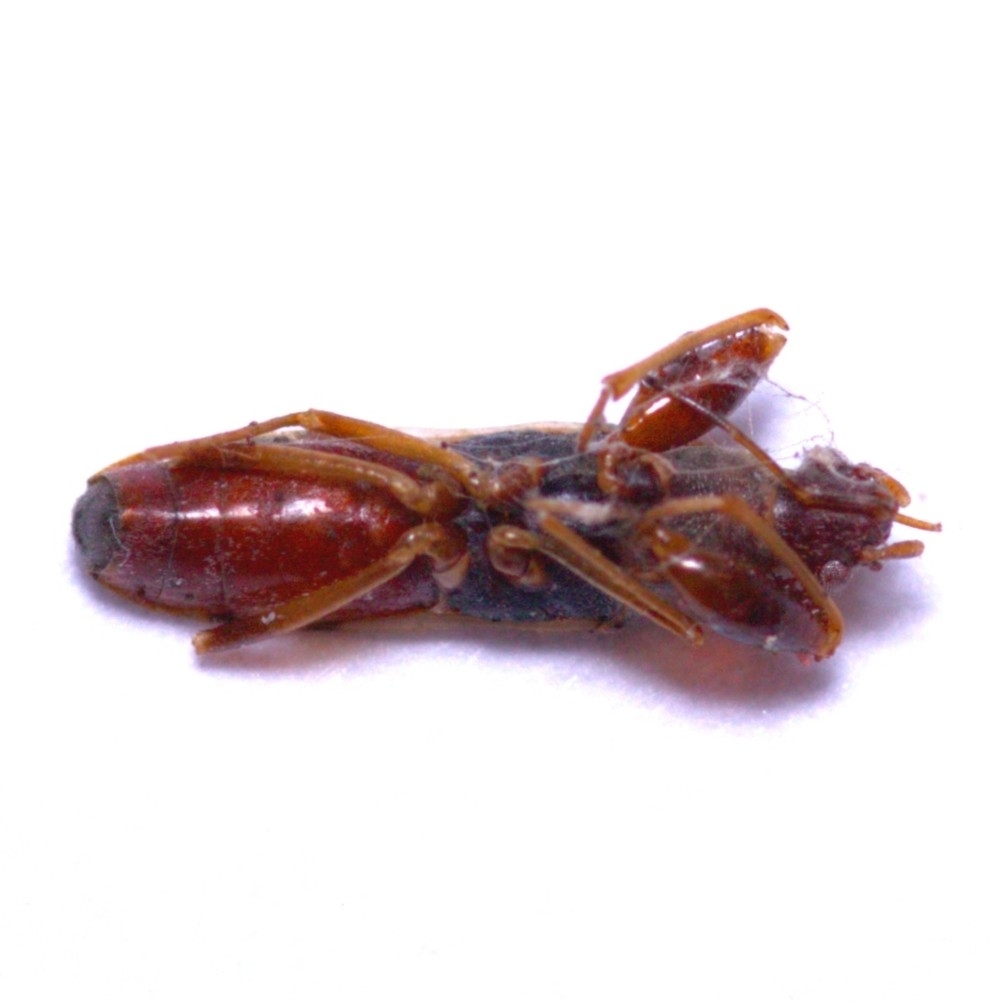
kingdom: Animalia
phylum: Arthropoda
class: Insecta
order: Hemiptera
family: Rhyparochromidae
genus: Neopamera
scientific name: Neopamera bilobata
